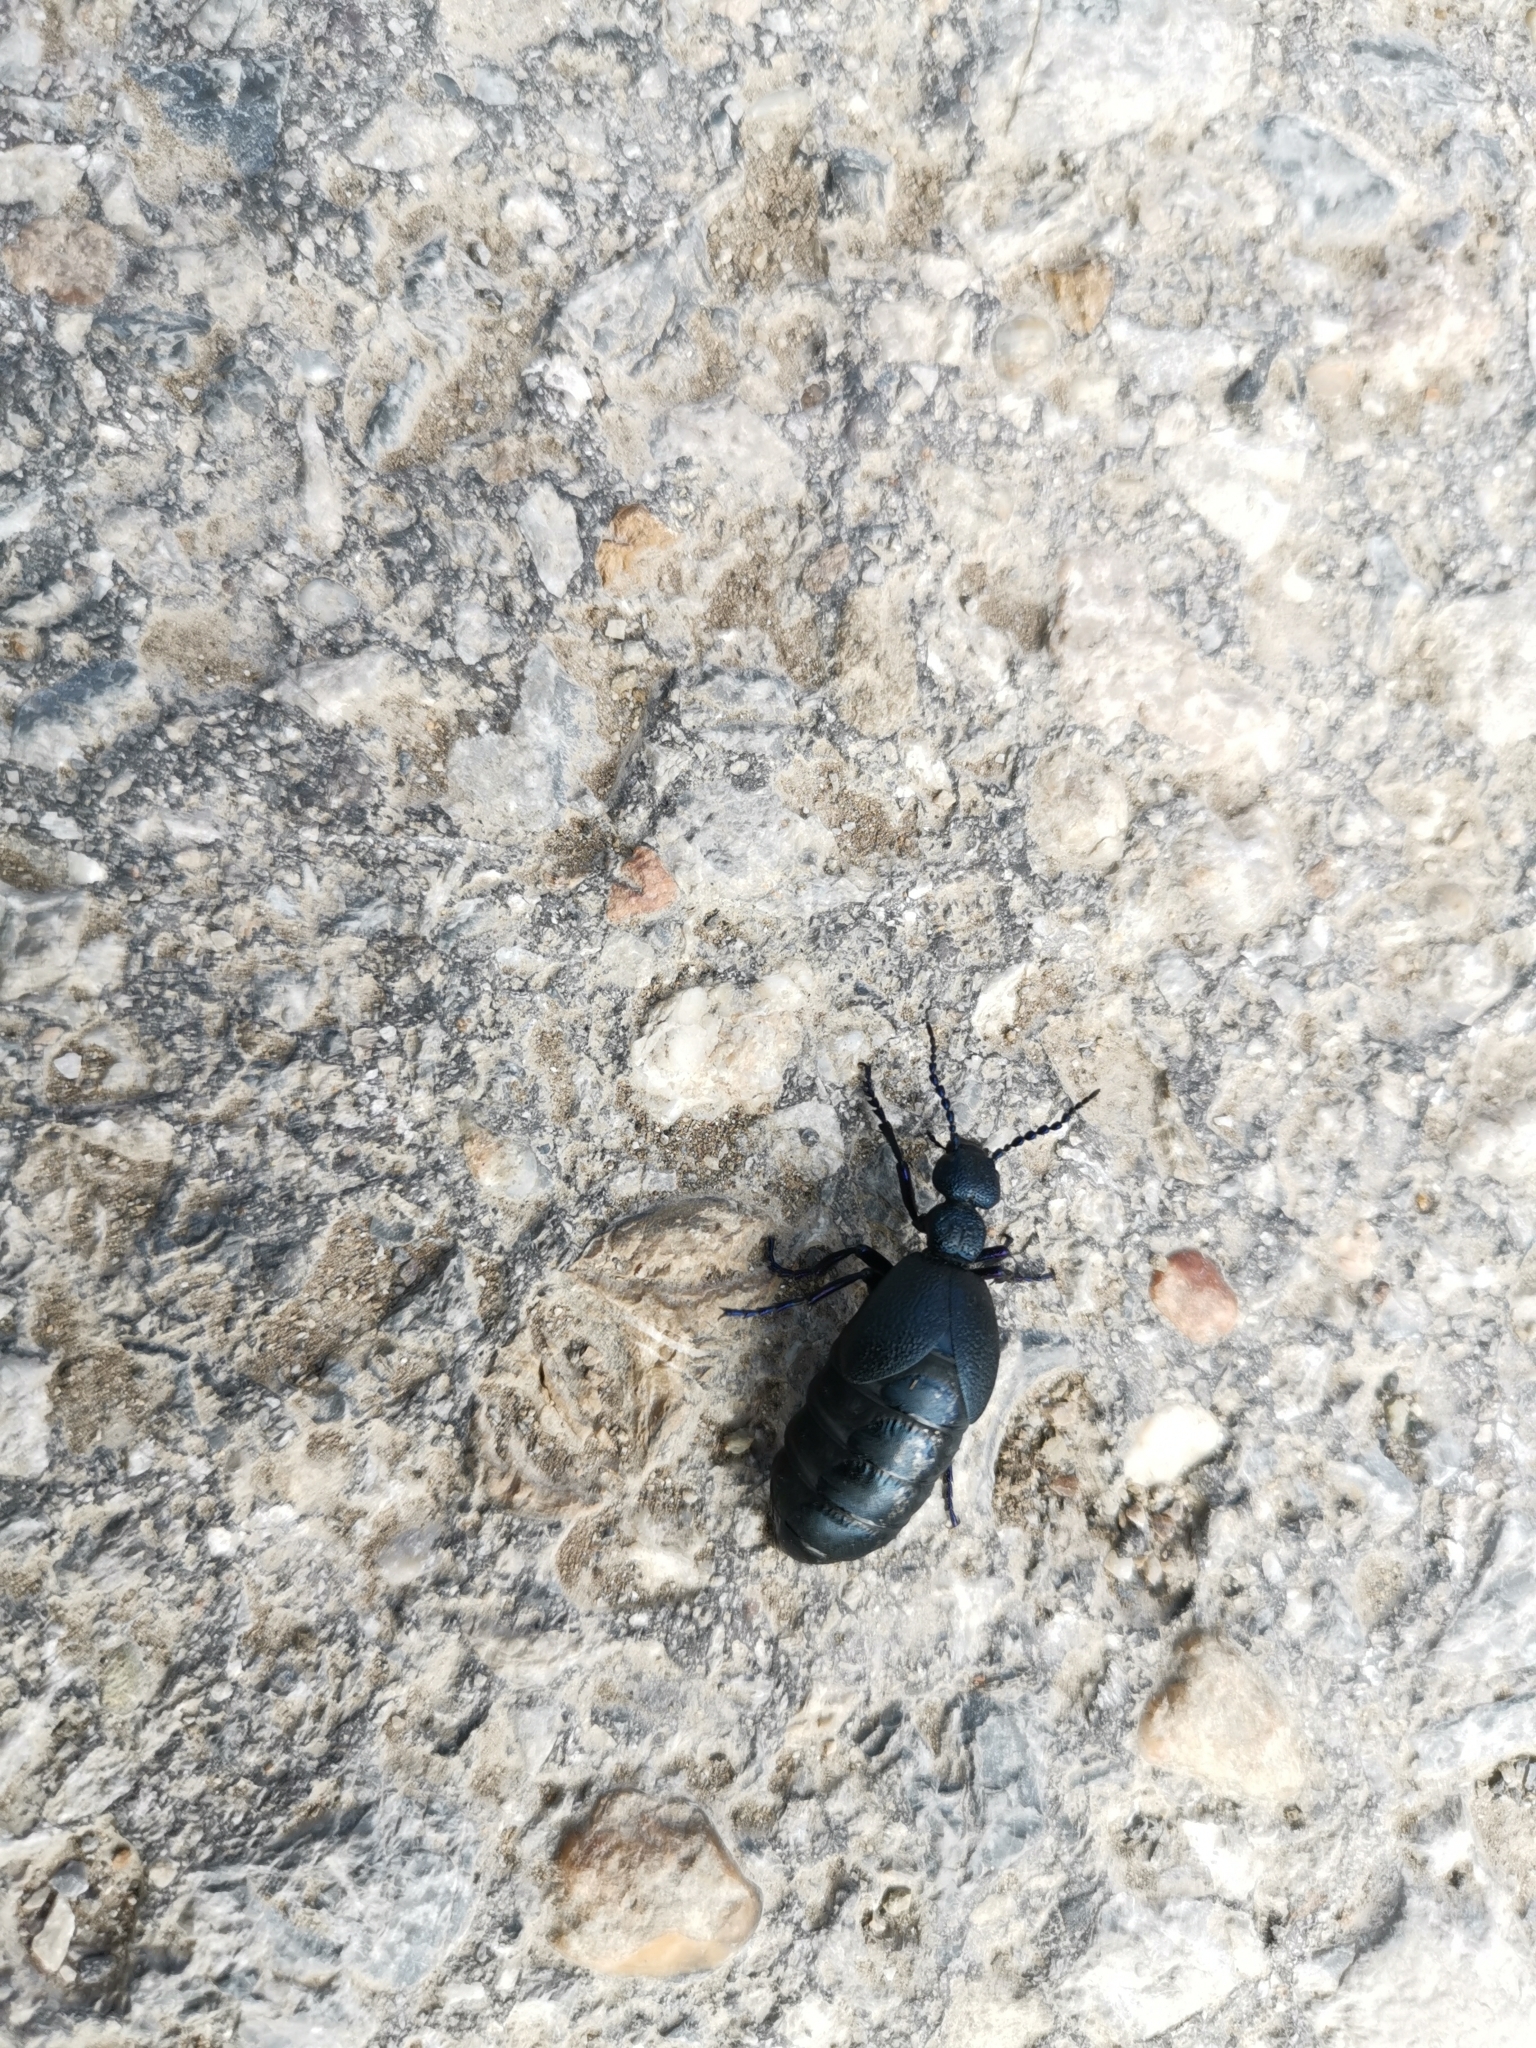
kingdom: Animalia
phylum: Arthropoda
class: Insecta
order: Coleoptera
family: Meloidae
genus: Meloe
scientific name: Meloe proscarabaeus
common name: Black oil-beetle
